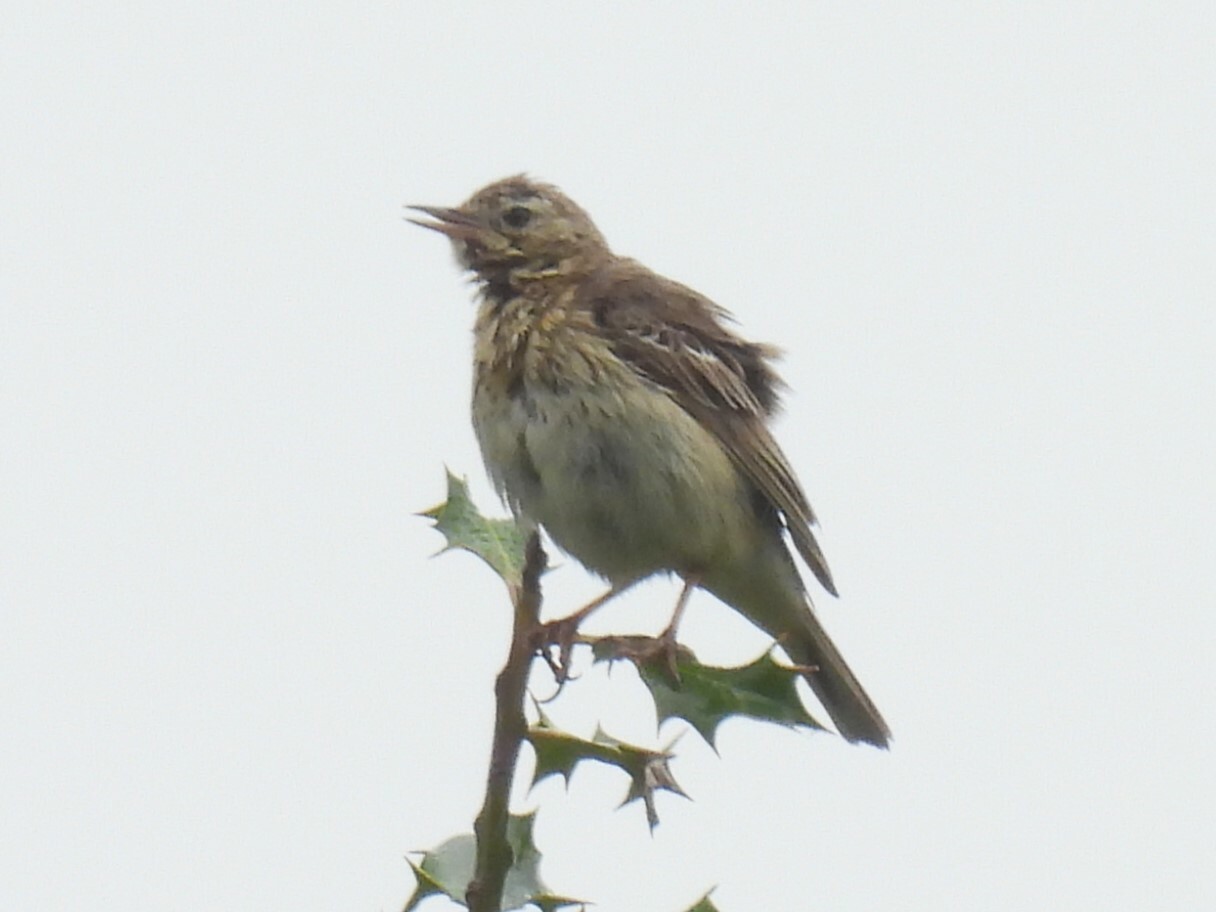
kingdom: Animalia
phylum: Chordata
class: Aves
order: Passeriformes
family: Motacillidae
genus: Anthus
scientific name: Anthus trivialis
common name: Tree pipit
